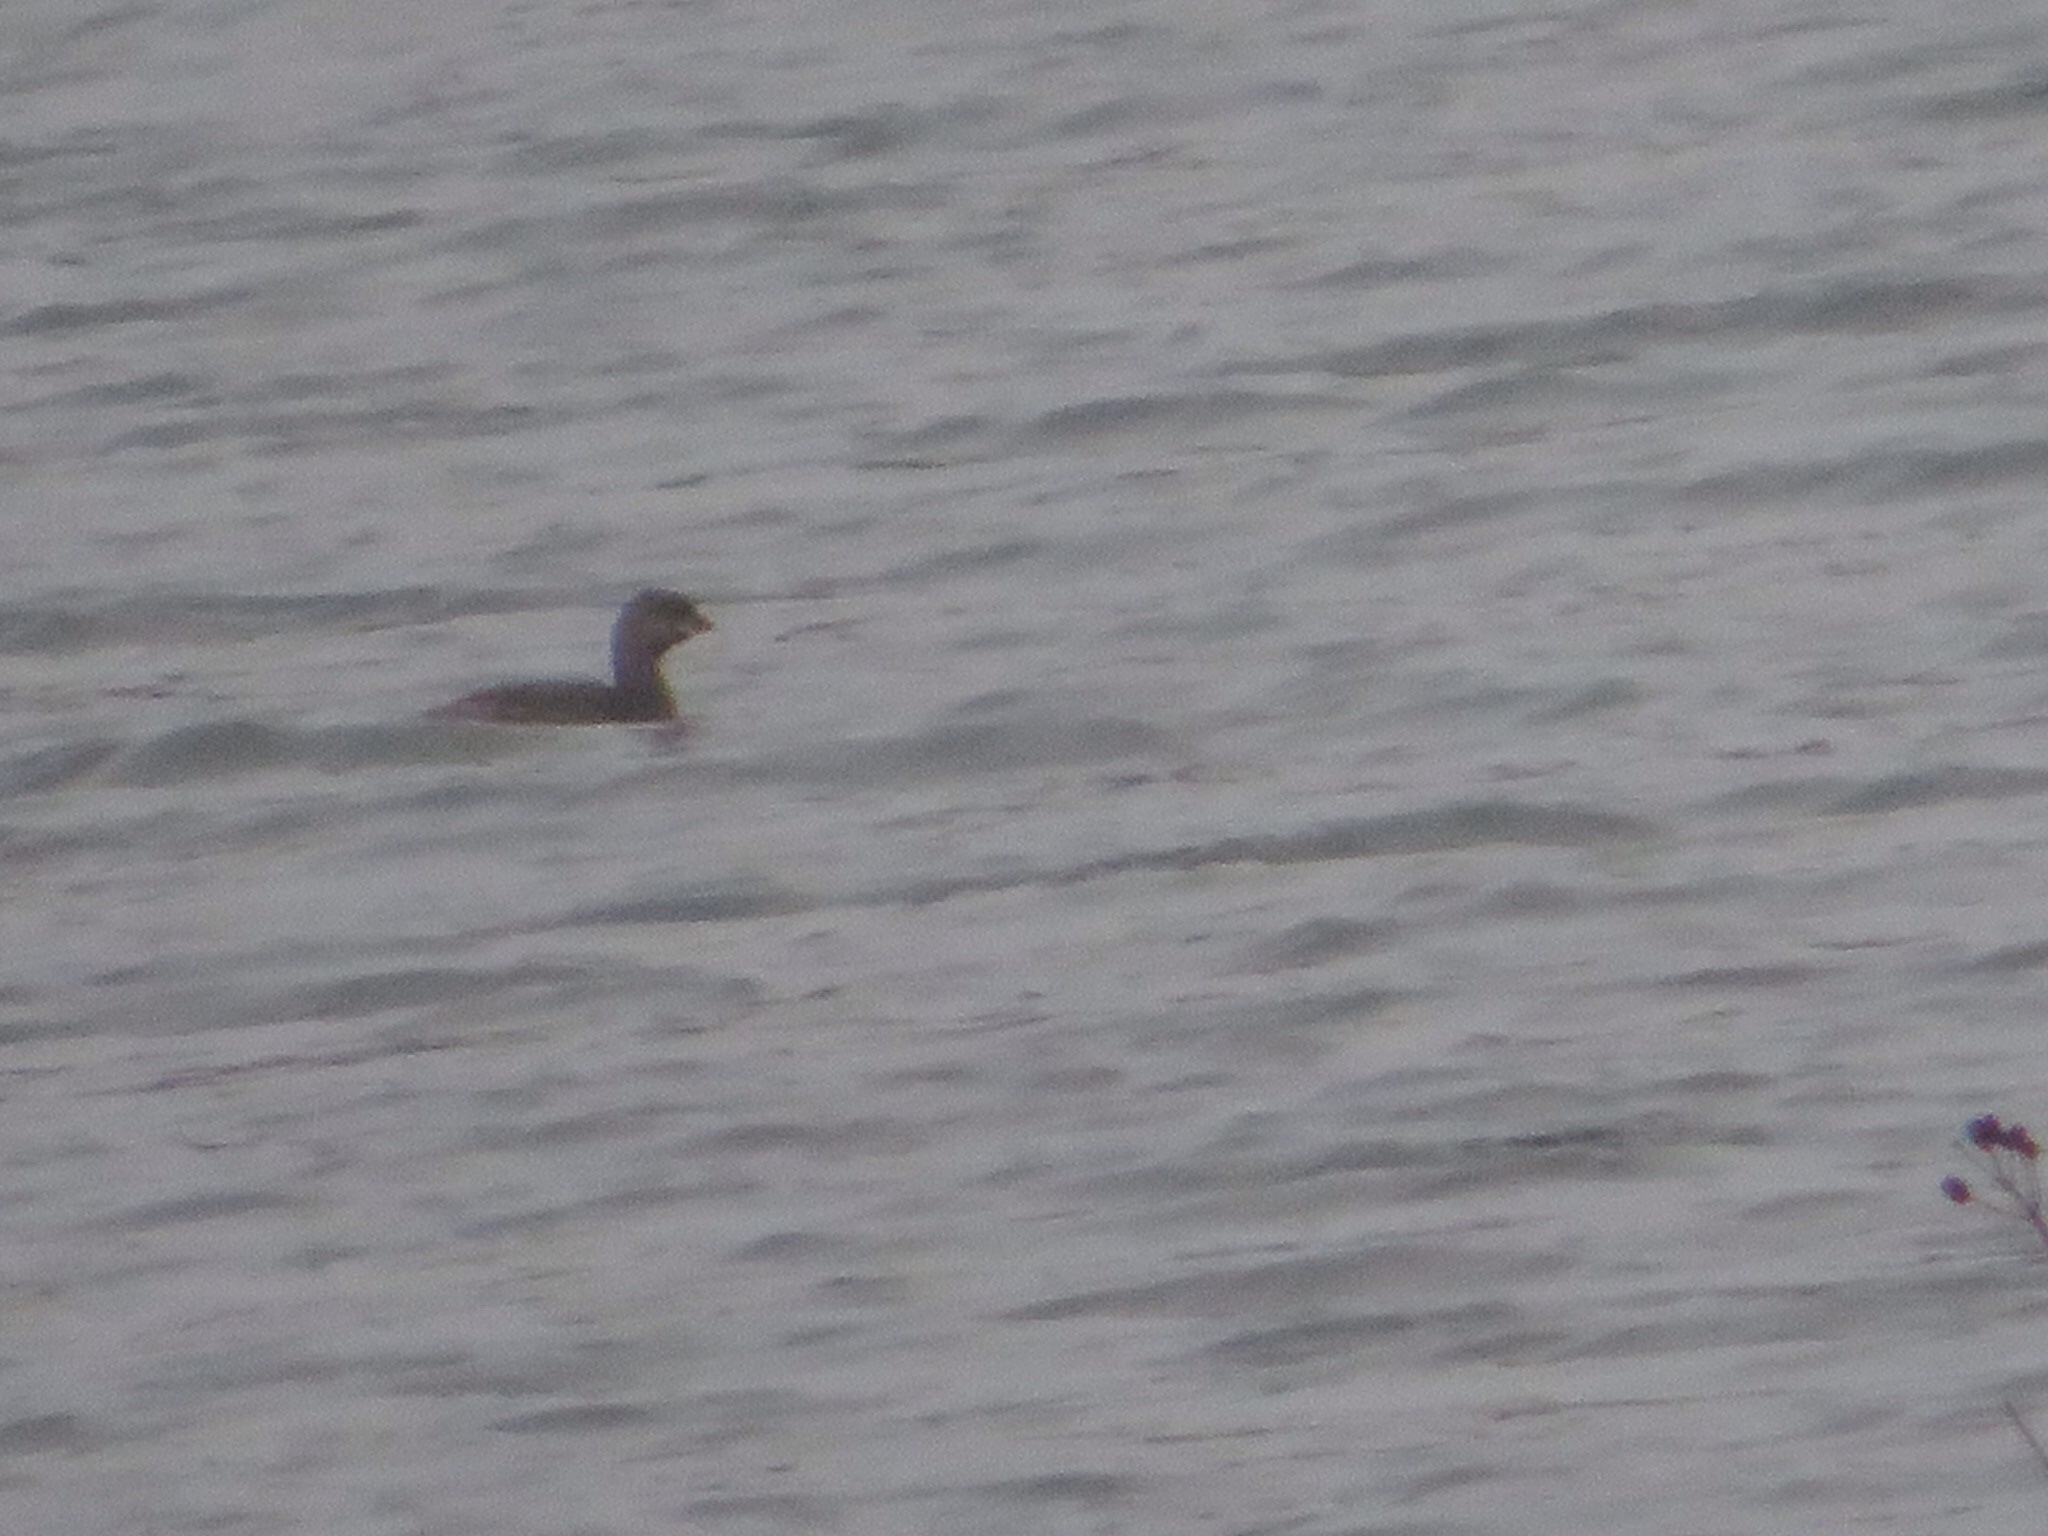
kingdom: Animalia
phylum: Chordata
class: Aves
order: Podicipediformes
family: Podicipedidae
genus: Podilymbus
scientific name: Podilymbus podiceps
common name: Pied-billed grebe
